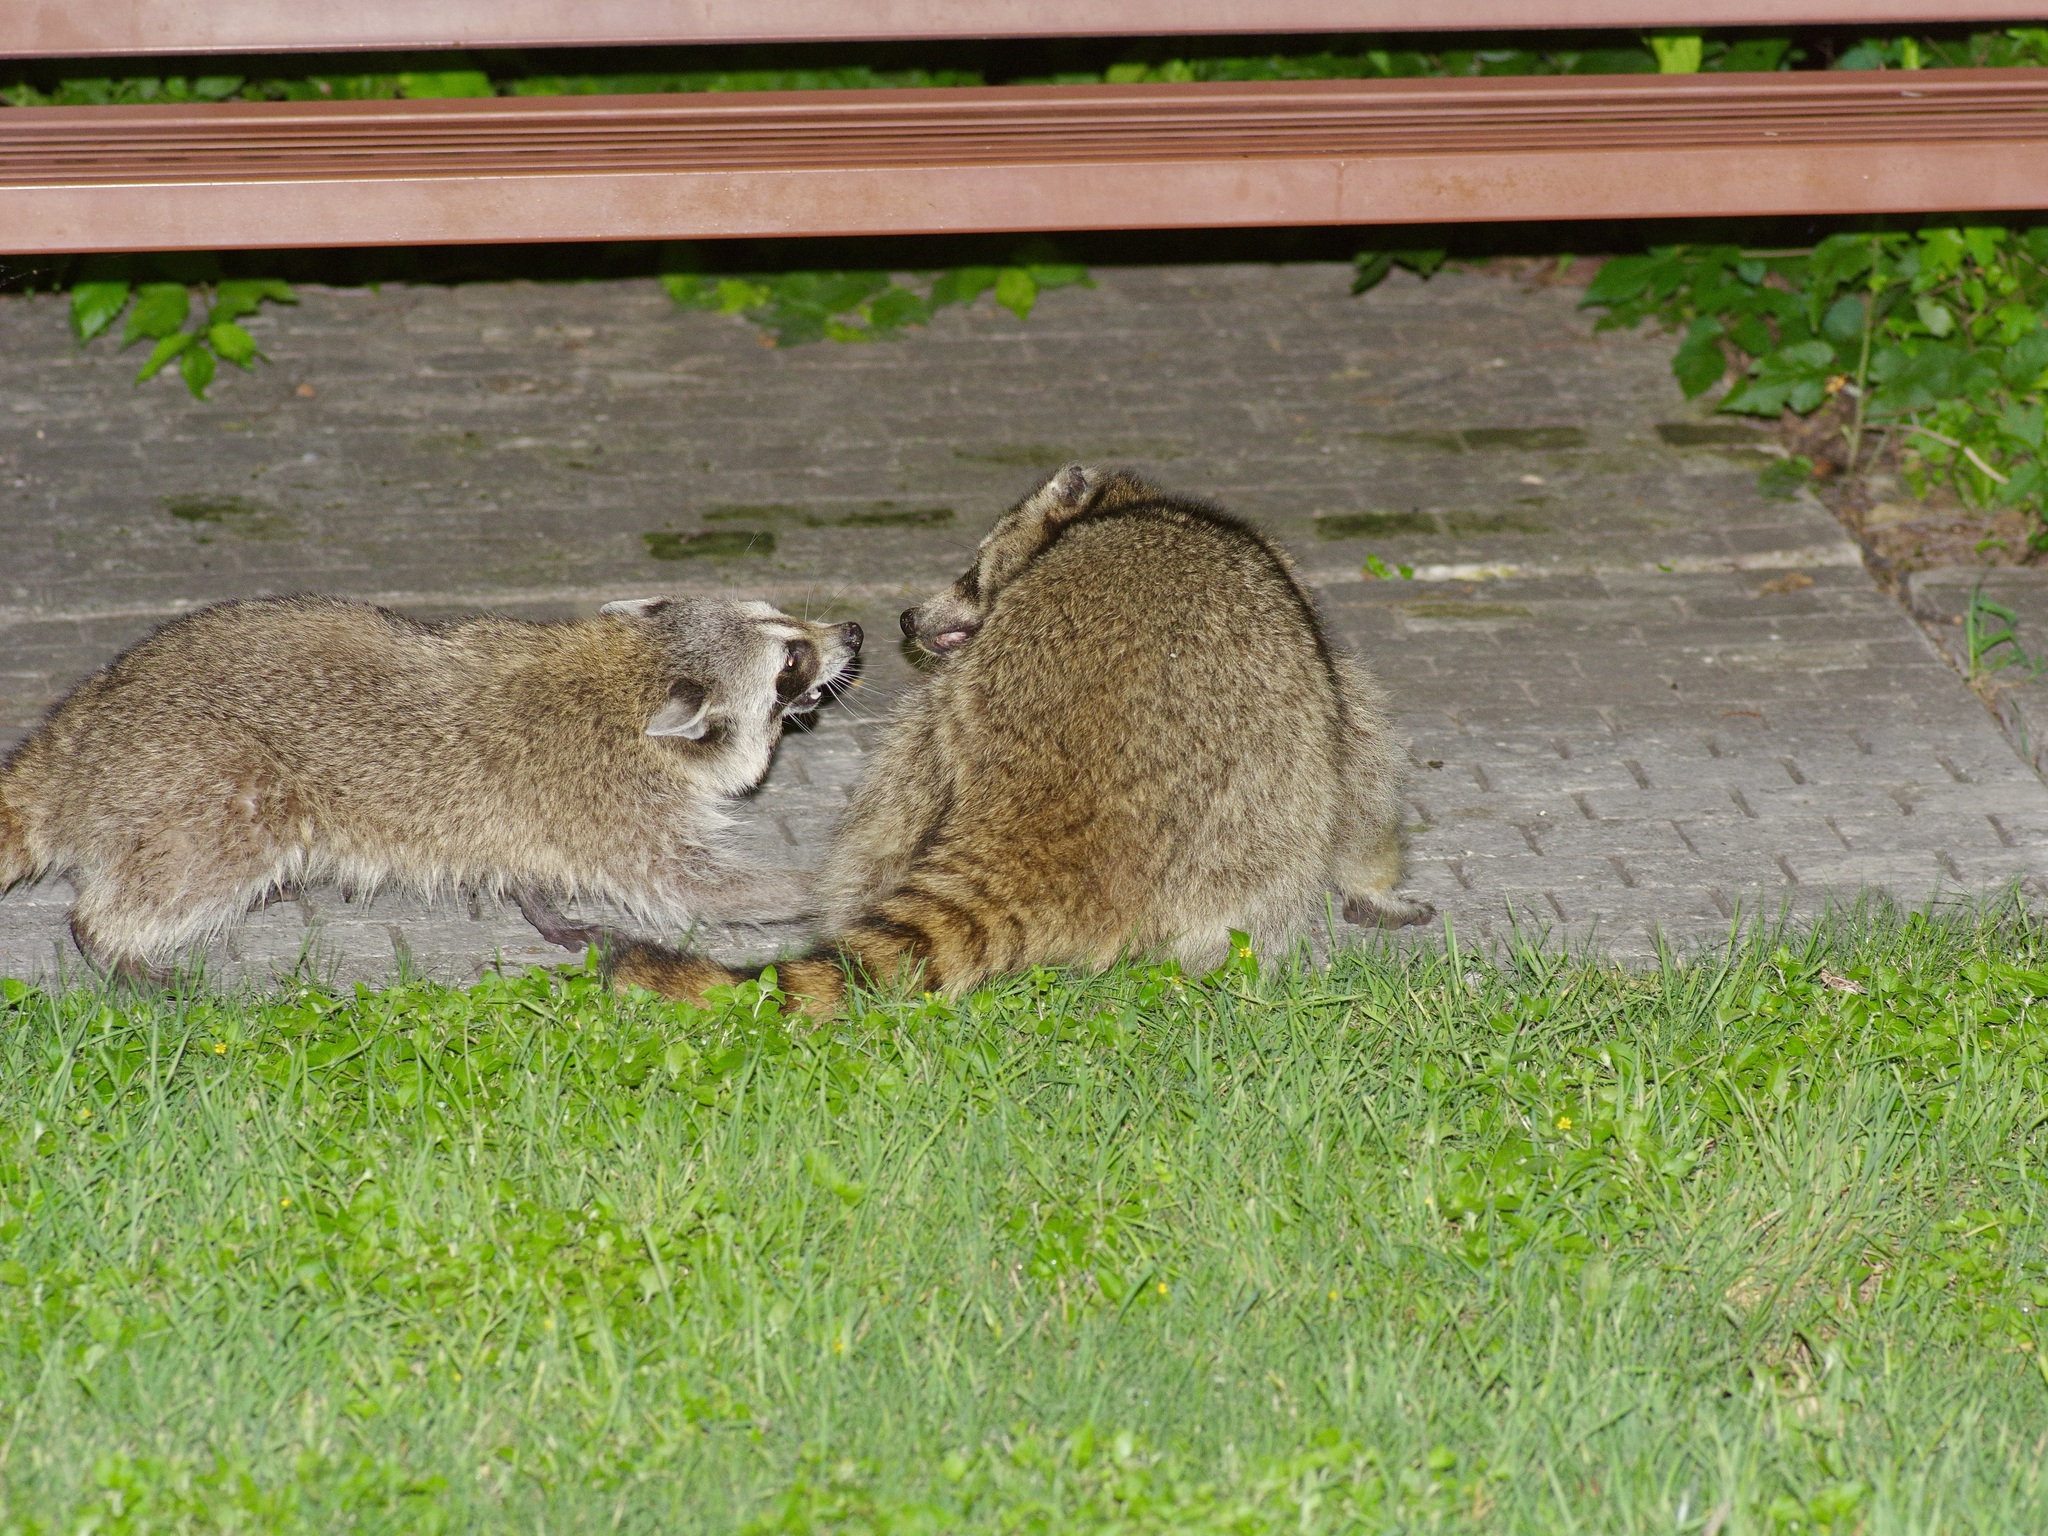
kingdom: Animalia
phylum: Chordata
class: Mammalia
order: Carnivora
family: Procyonidae
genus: Procyon
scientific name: Procyon lotor
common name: Raccoon
